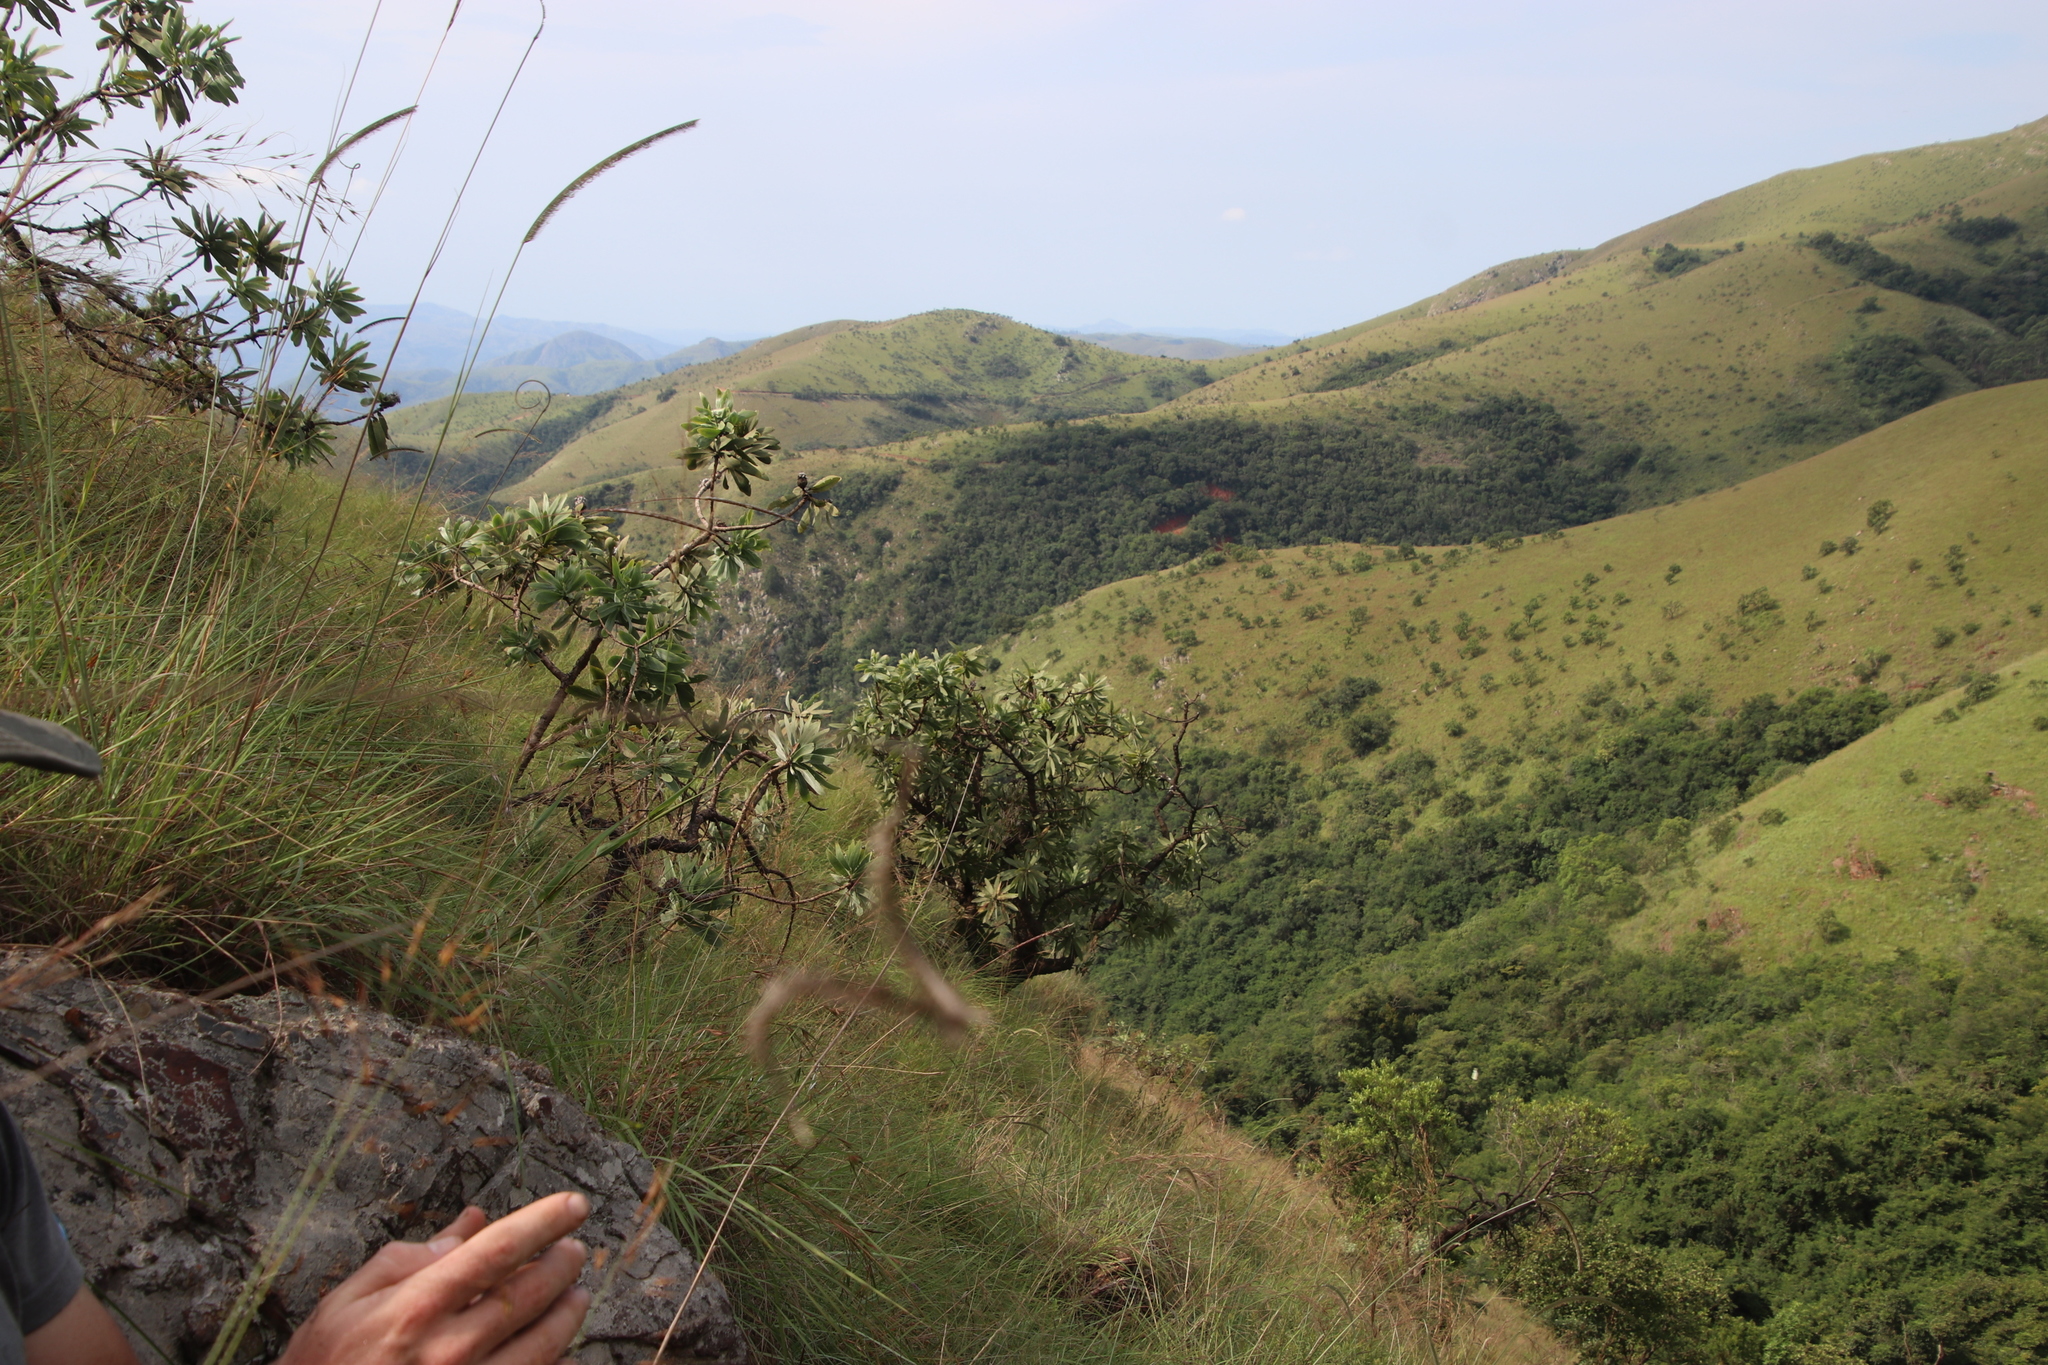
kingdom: Plantae
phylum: Tracheophyta
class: Magnoliopsida
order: Proteales
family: Proteaceae
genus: Protea
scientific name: Protea gaguedi
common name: African protea
